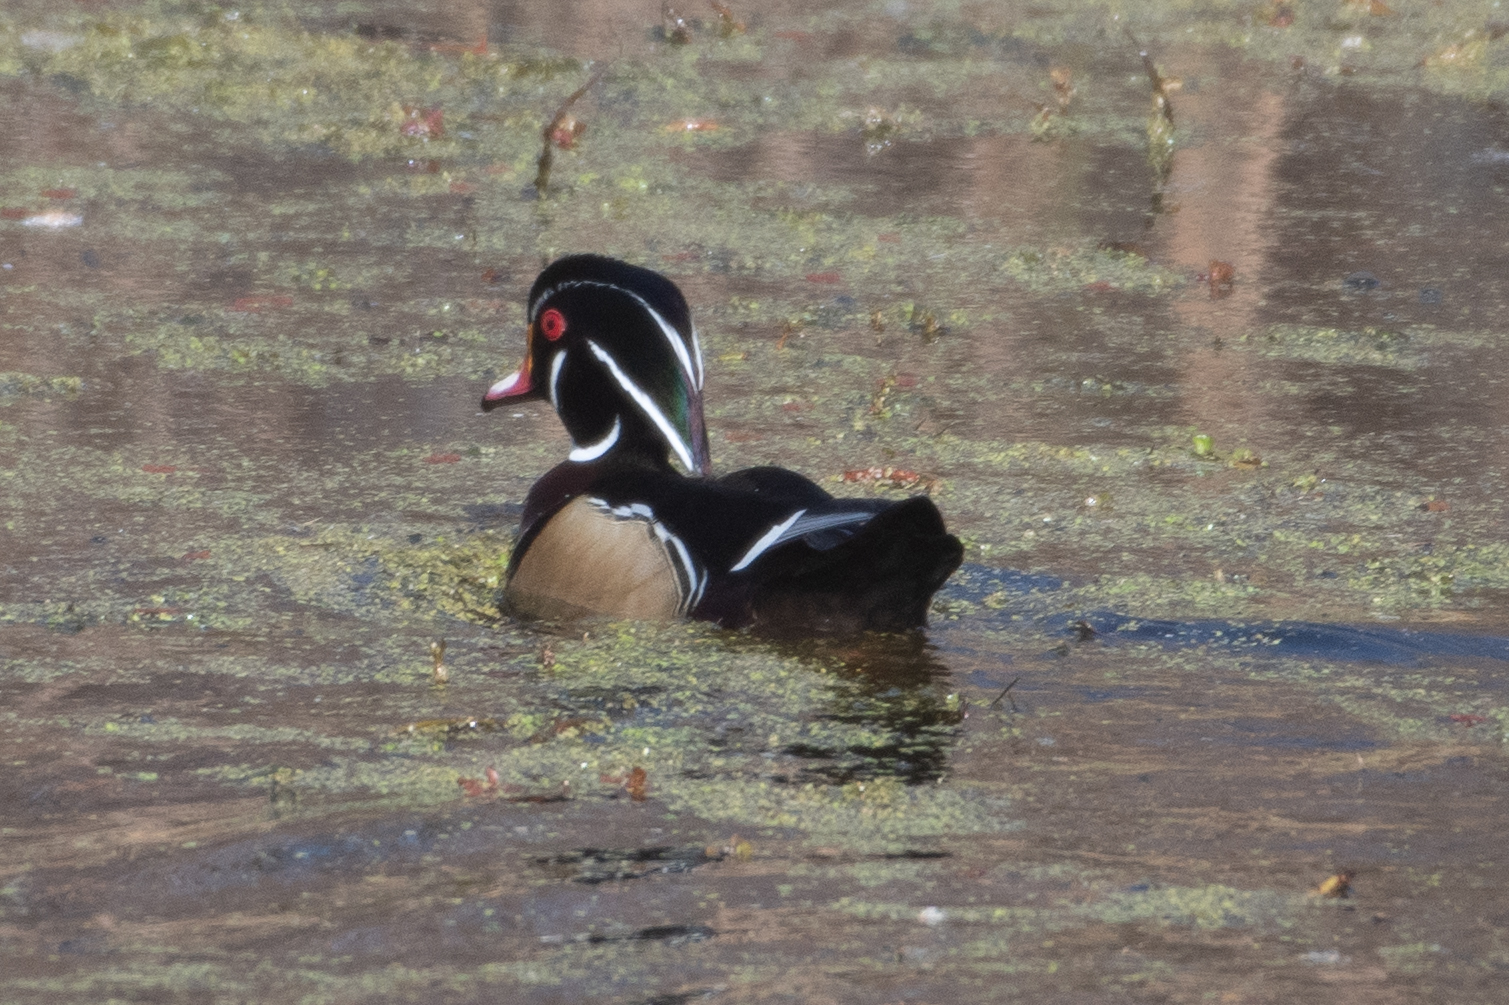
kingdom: Animalia
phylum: Chordata
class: Aves
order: Anseriformes
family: Anatidae
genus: Aix
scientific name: Aix sponsa
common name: Wood duck
